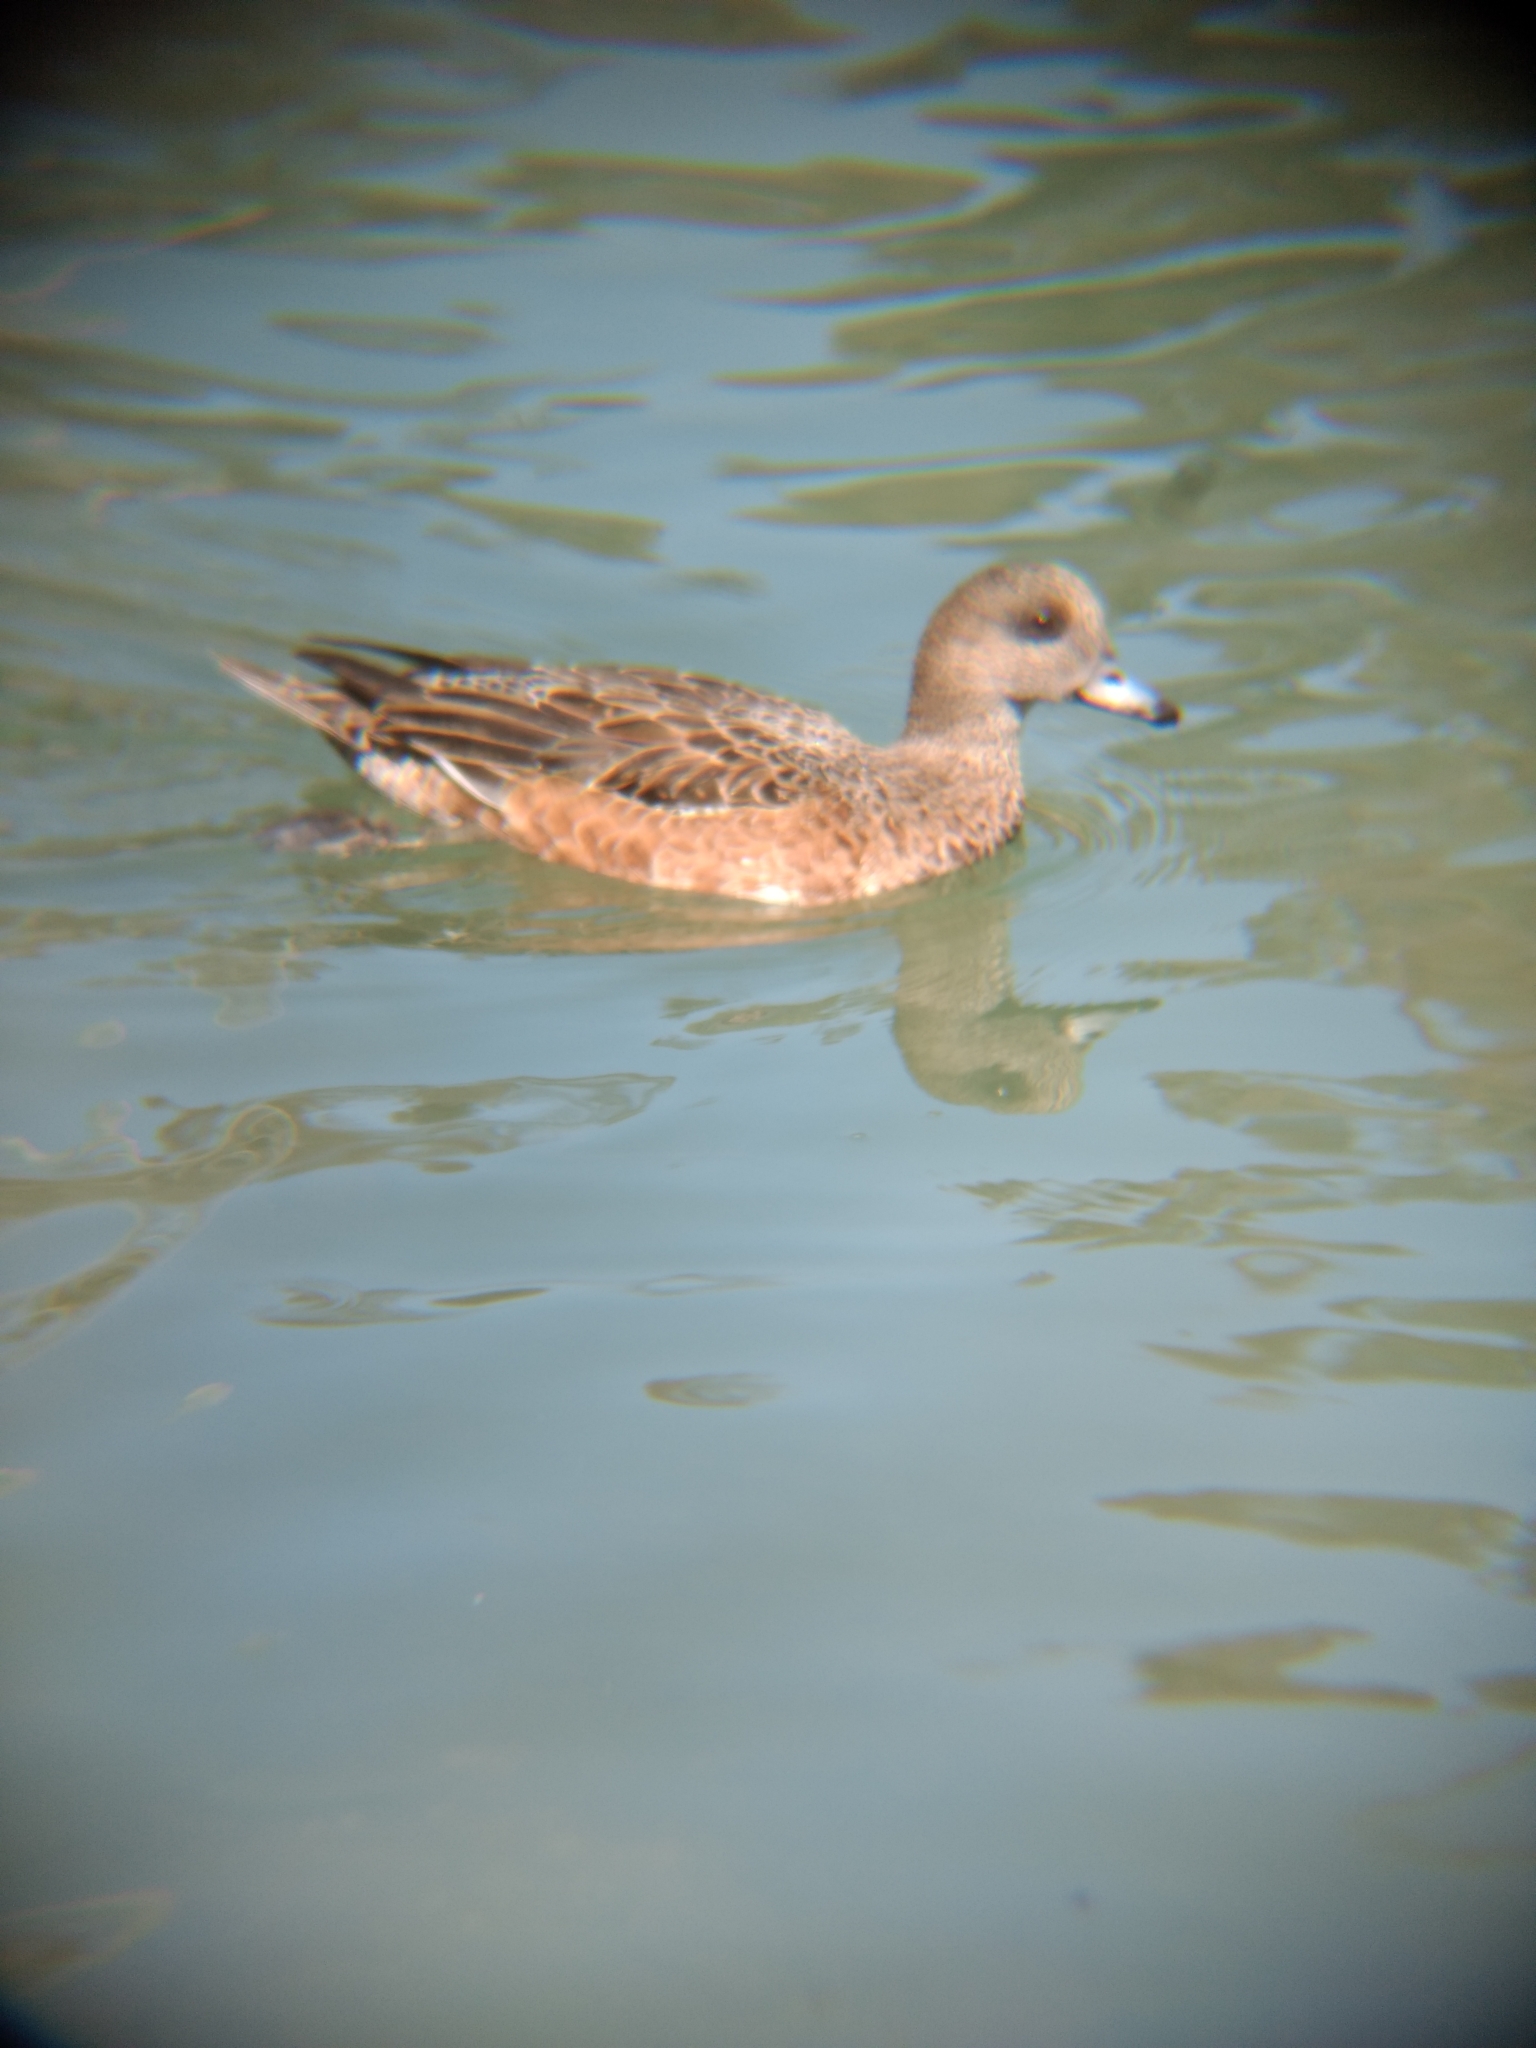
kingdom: Animalia
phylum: Chordata
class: Aves
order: Anseriformes
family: Anatidae
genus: Mareca
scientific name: Mareca americana
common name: American wigeon
